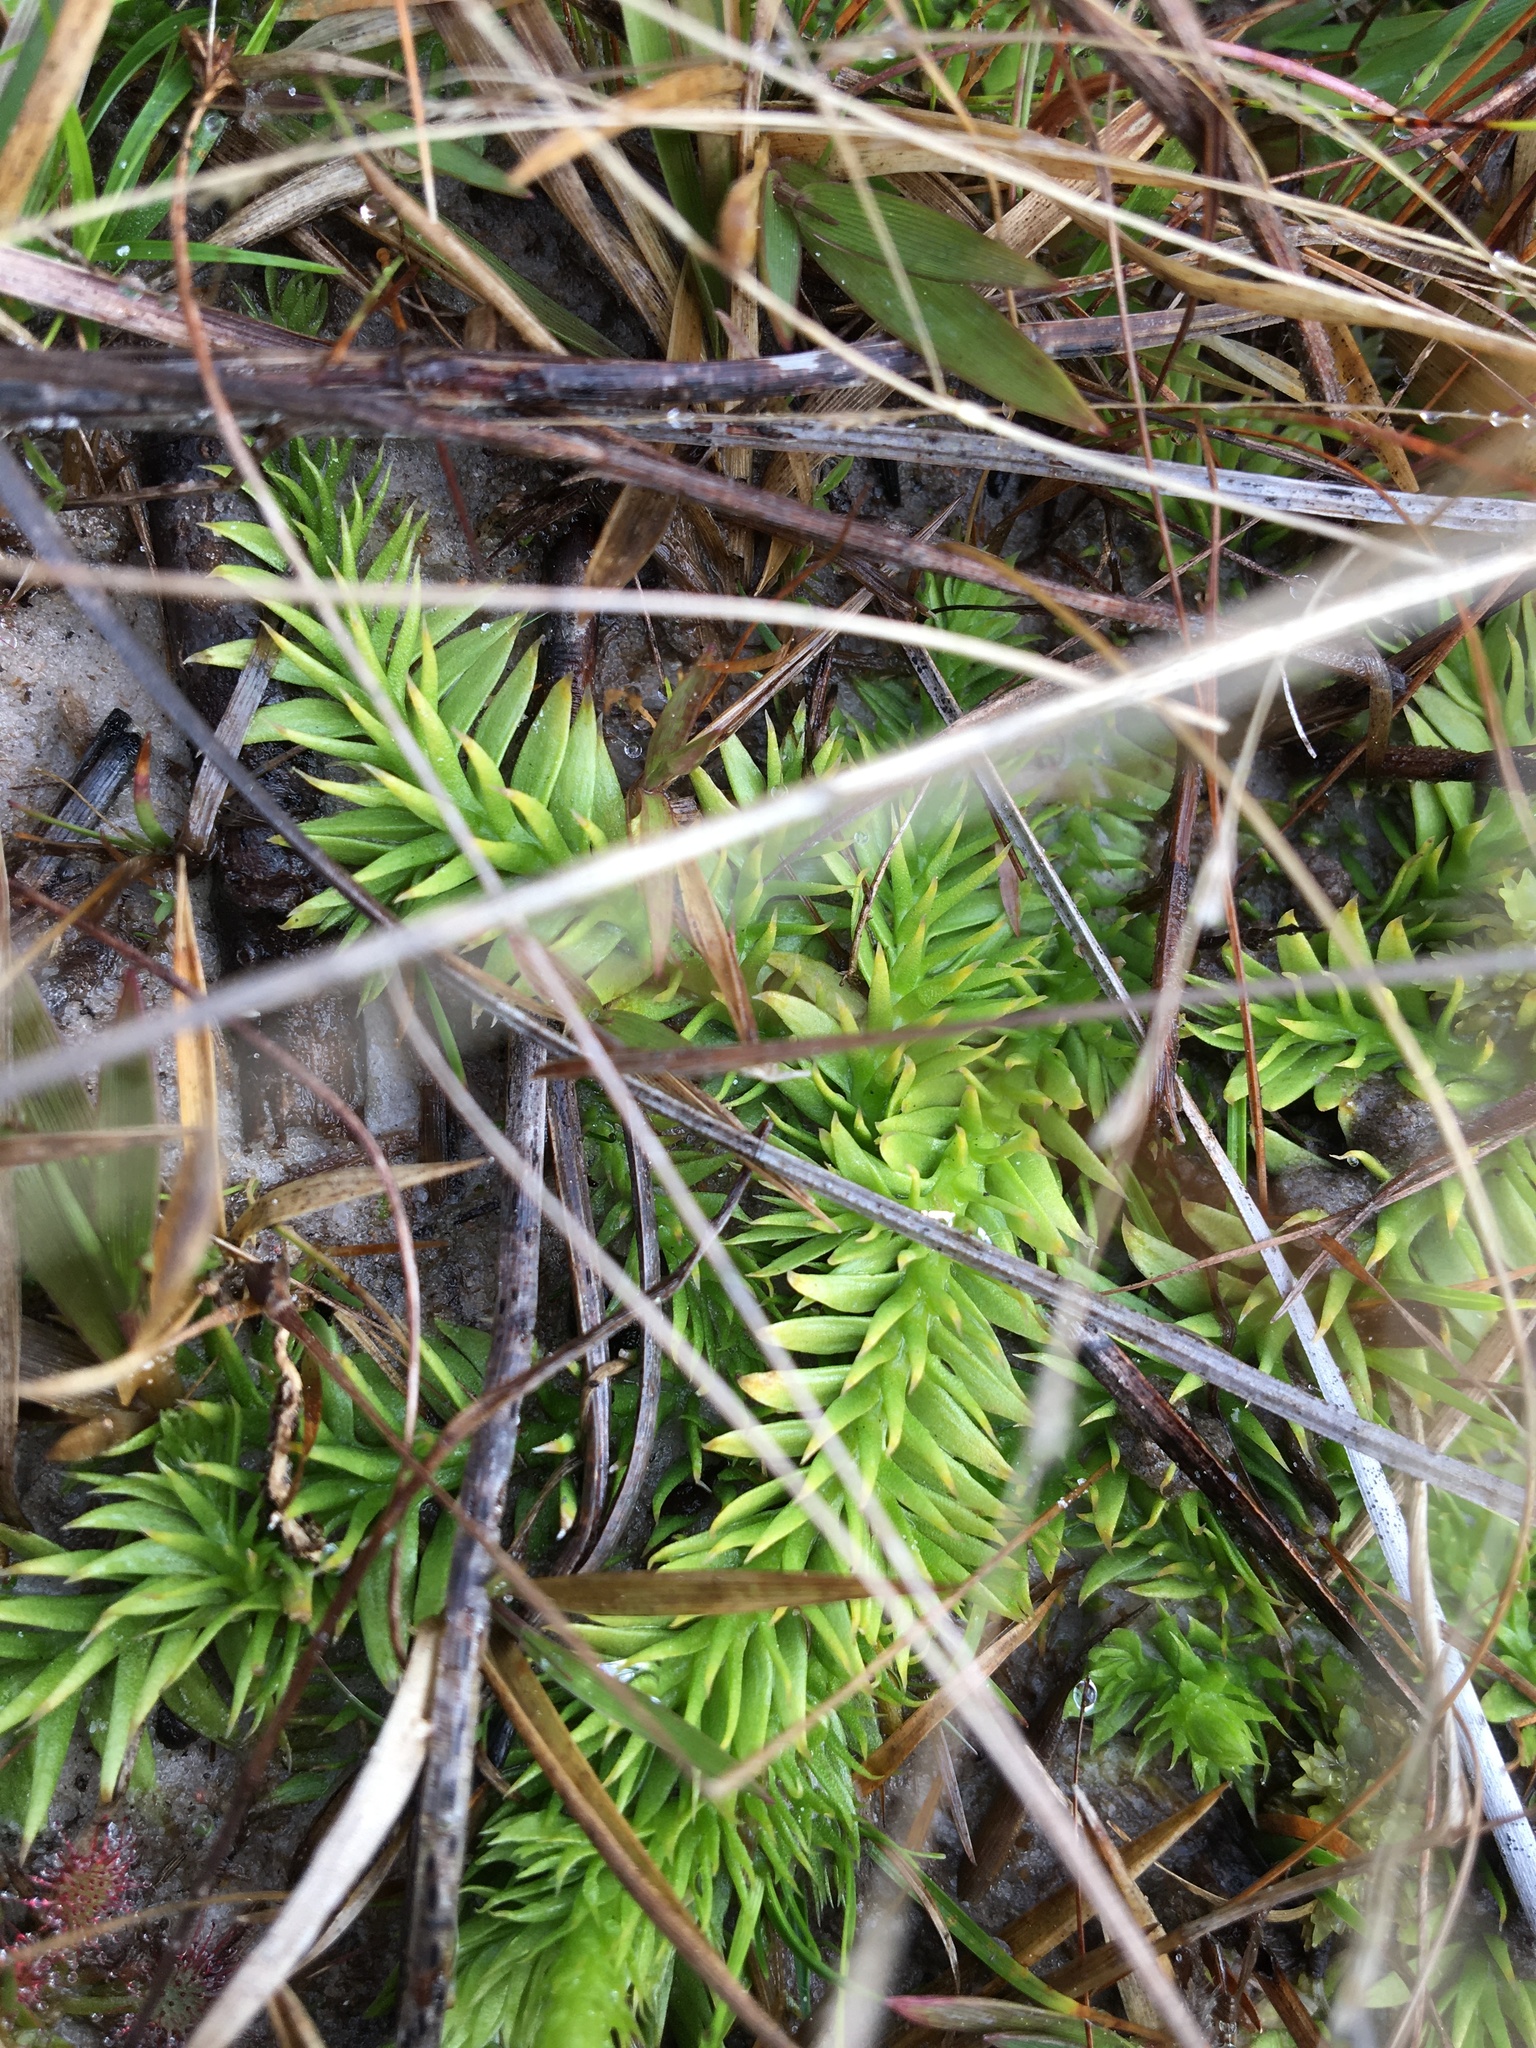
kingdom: Plantae
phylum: Tracheophyta
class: Lycopodiopsida
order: Lycopodiales
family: Lycopodiaceae
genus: Pseudolycopodiella
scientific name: Pseudolycopodiella caroliniana
